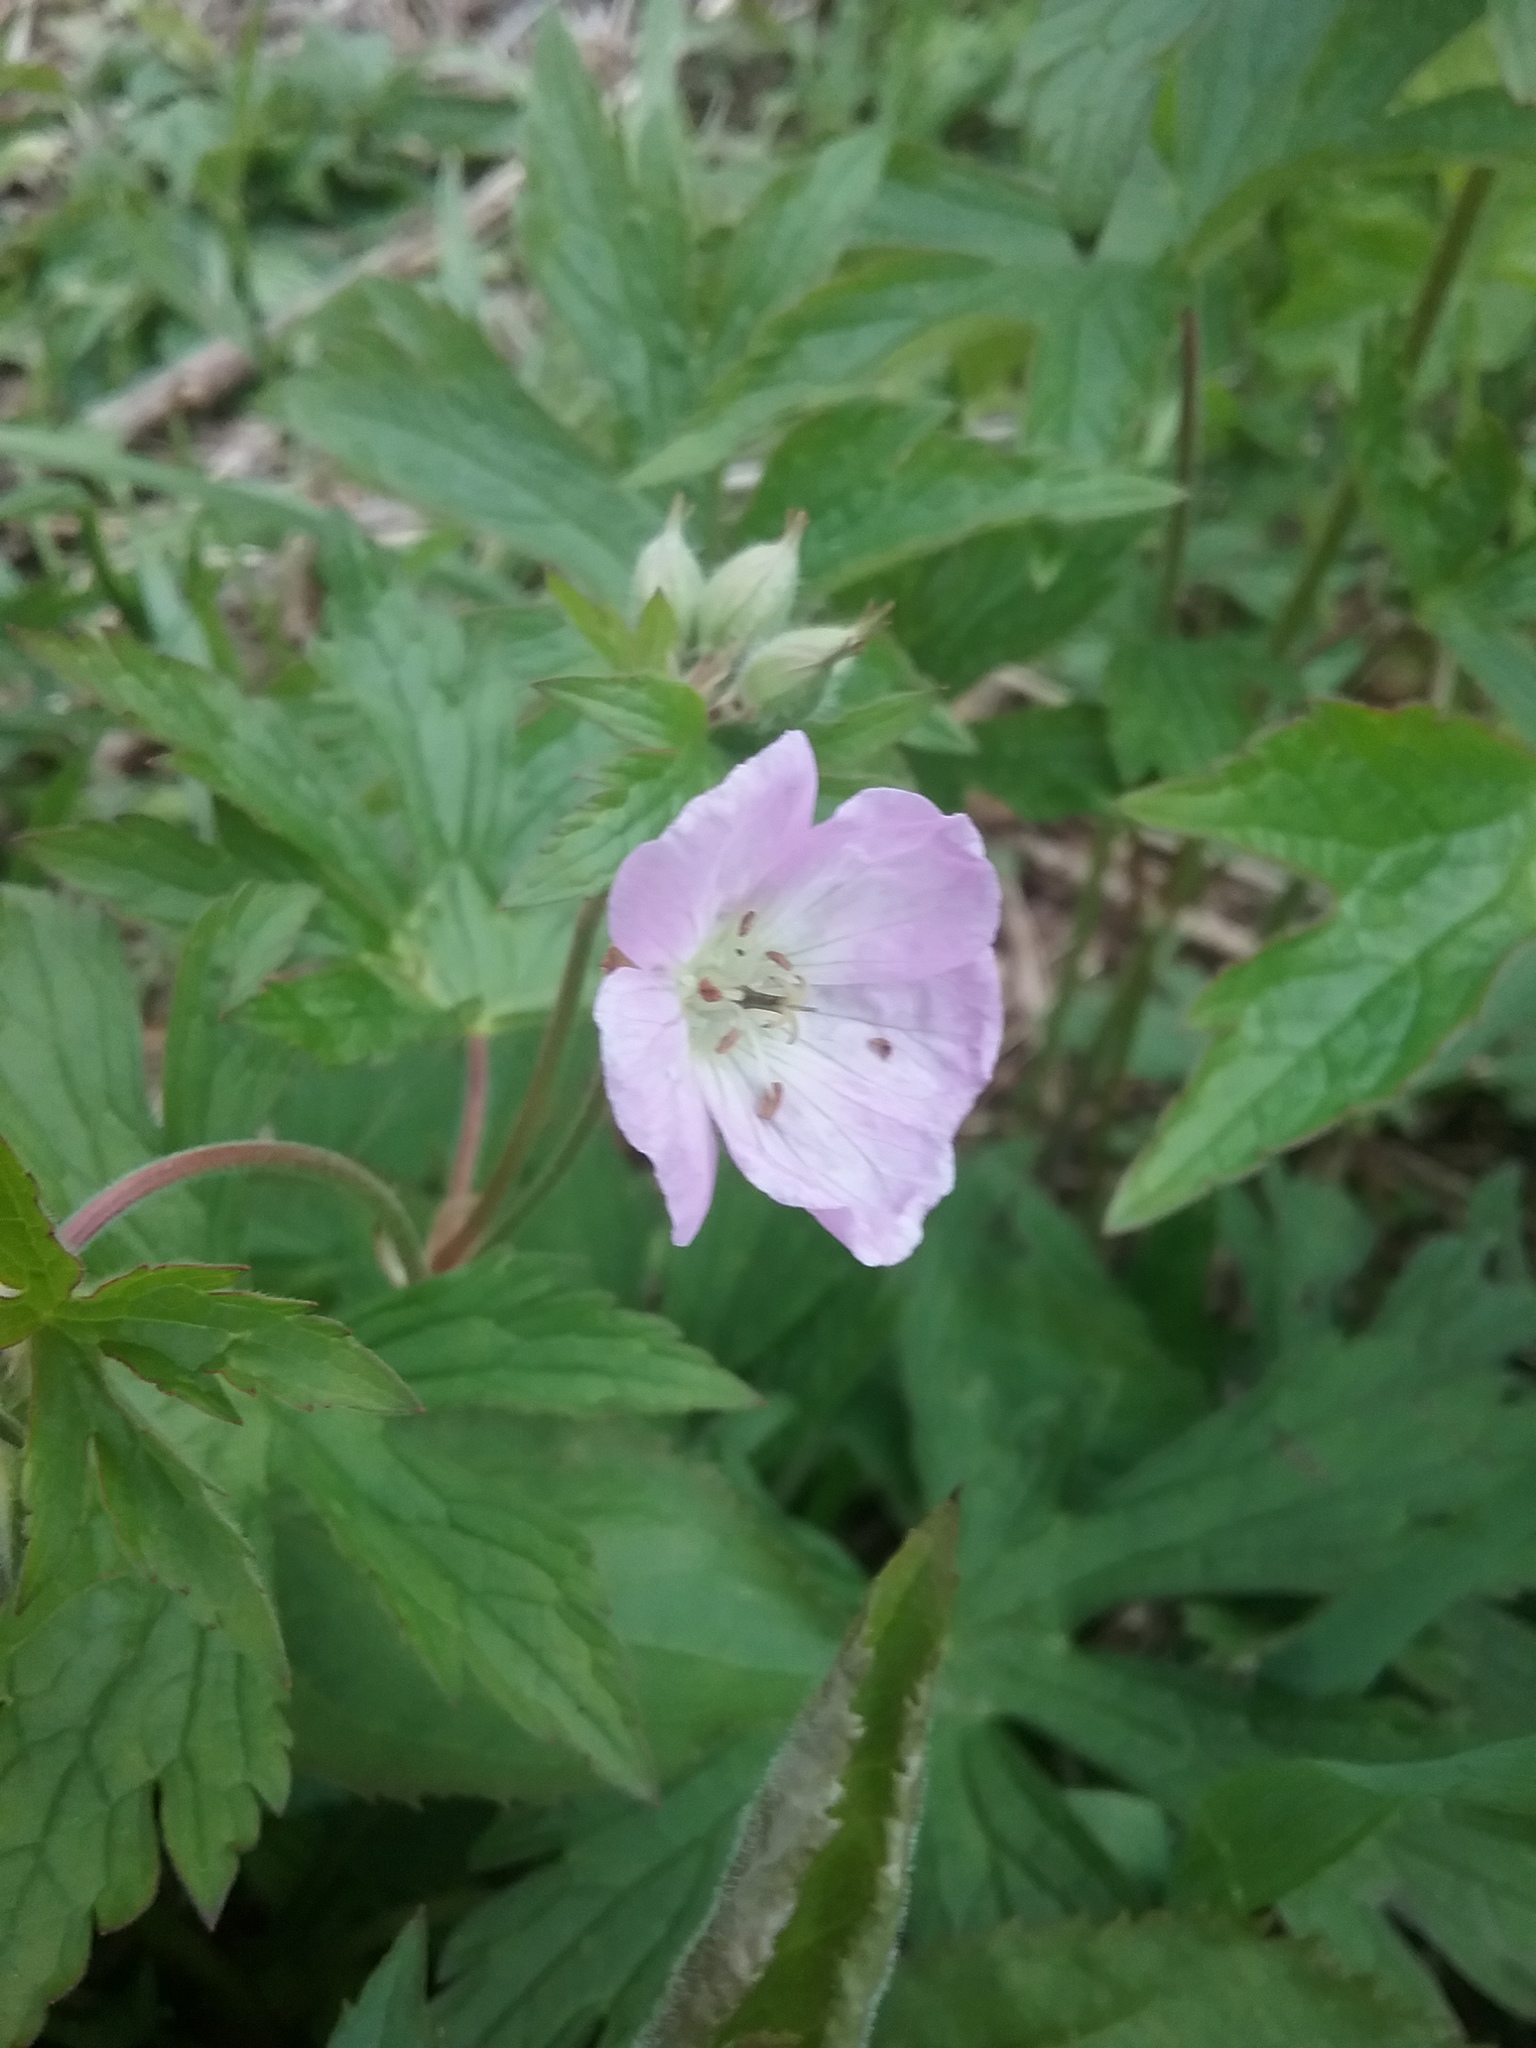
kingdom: Plantae
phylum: Tracheophyta
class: Magnoliopsida
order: Geraniales
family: Geraniaceae
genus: Geranium
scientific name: Geranium maculatum
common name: Spotted geranium
